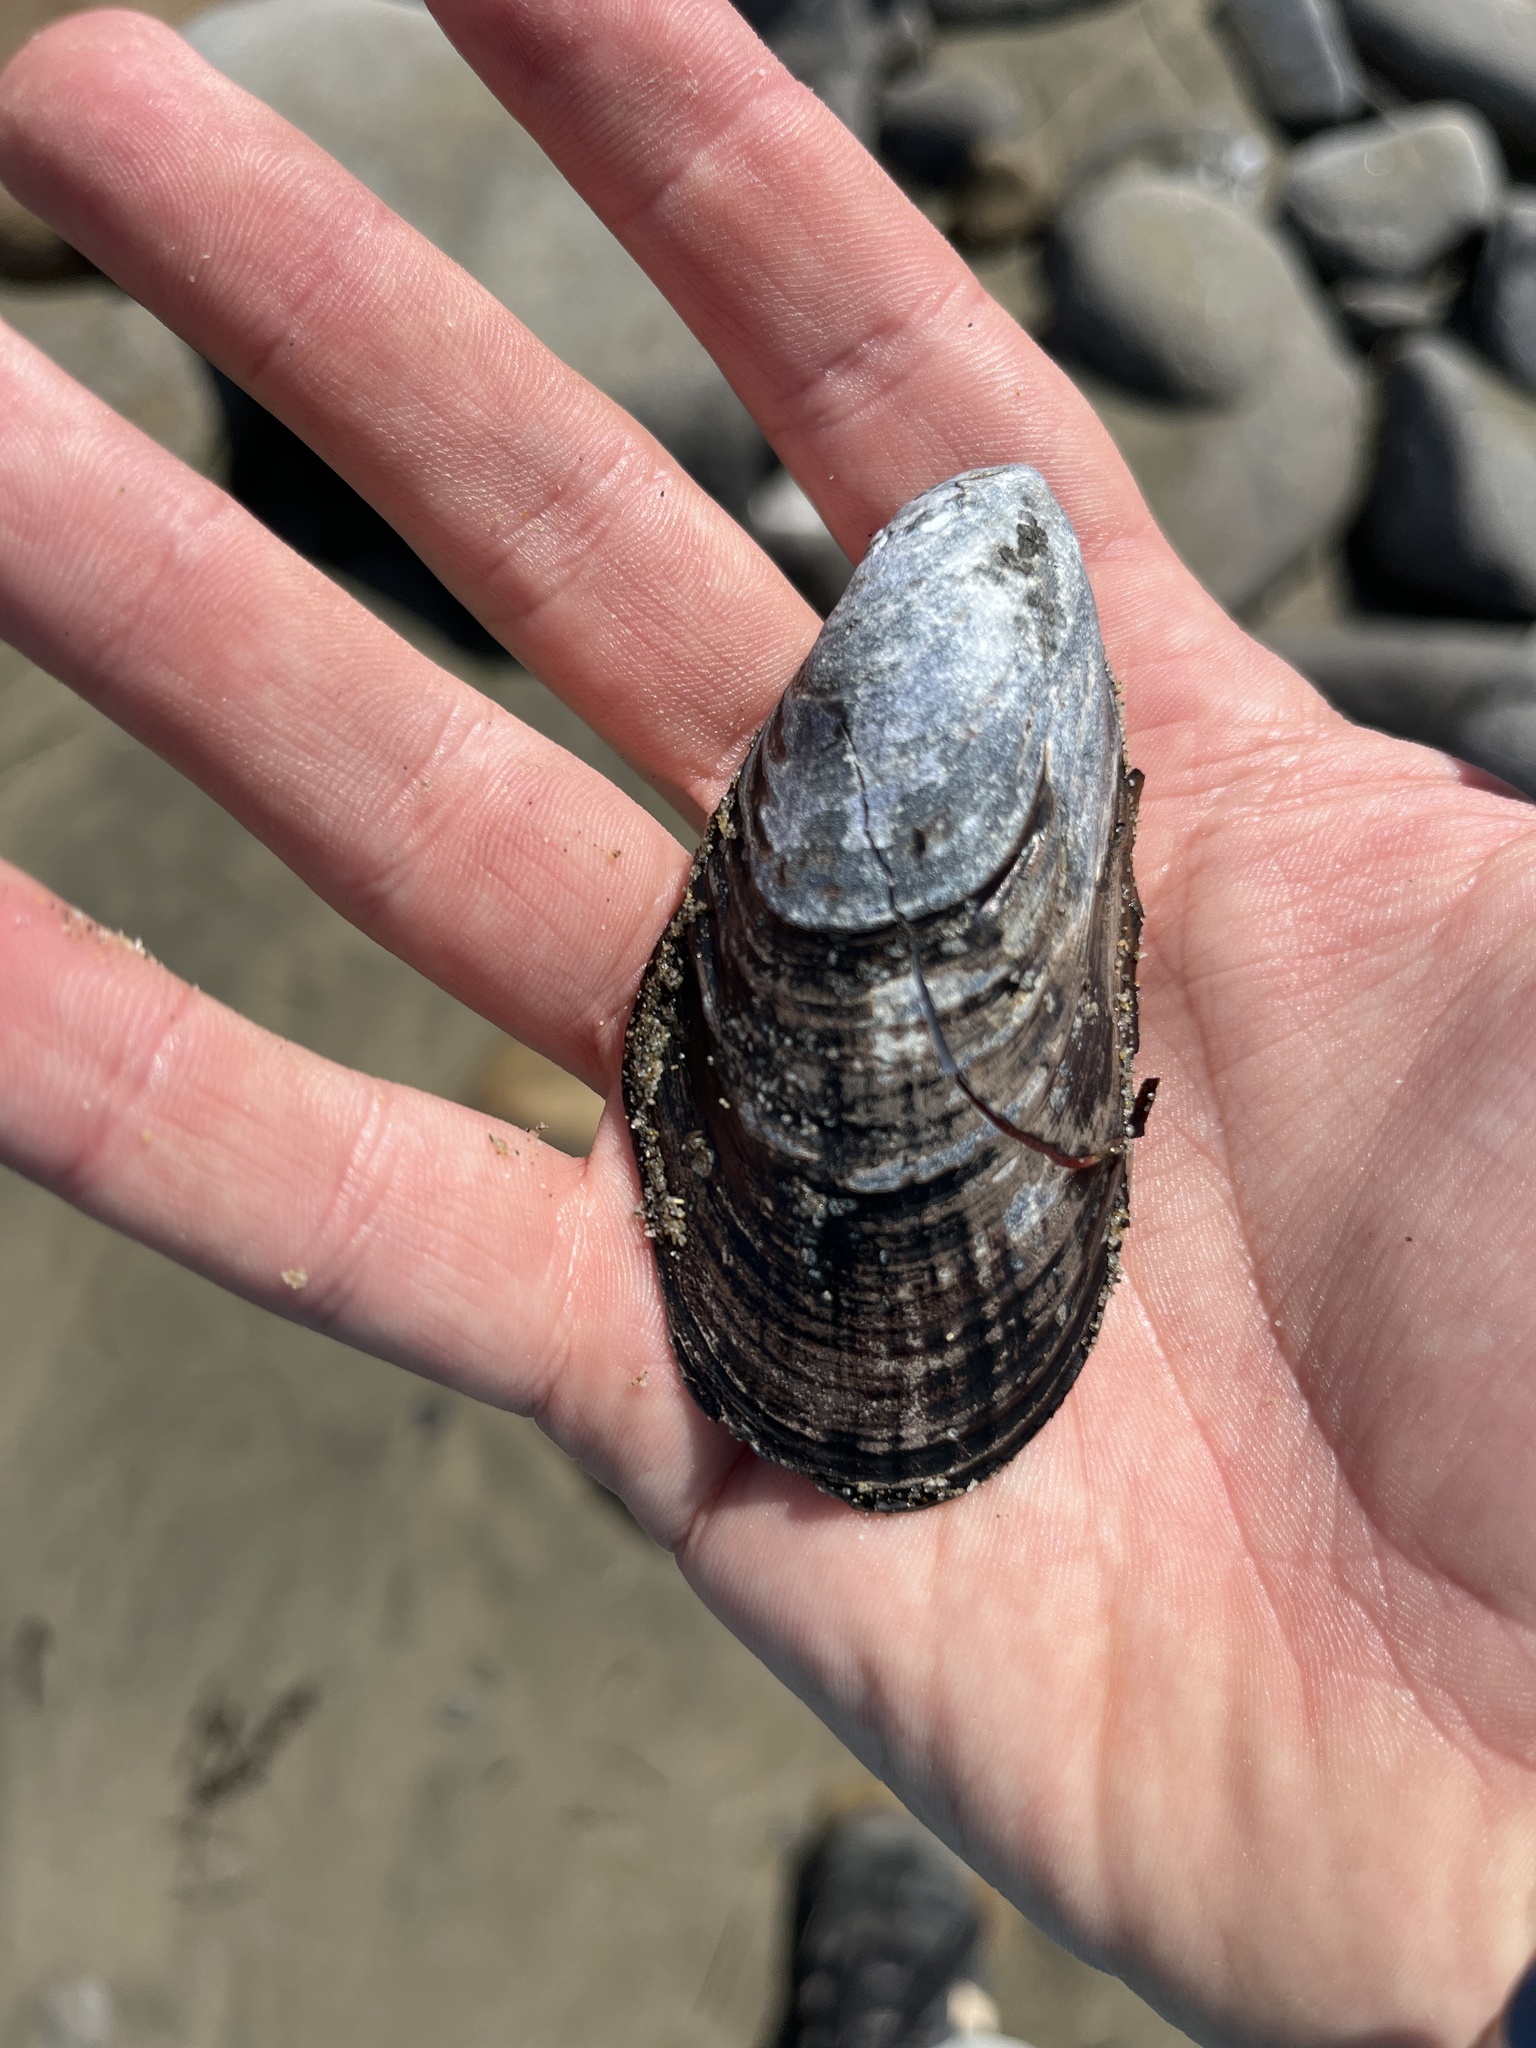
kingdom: Animalia
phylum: Mollusca
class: Bivalvia
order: Mytilida
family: Mytilidae
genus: Mytilus
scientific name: Mytilus californianus
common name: California mussel
